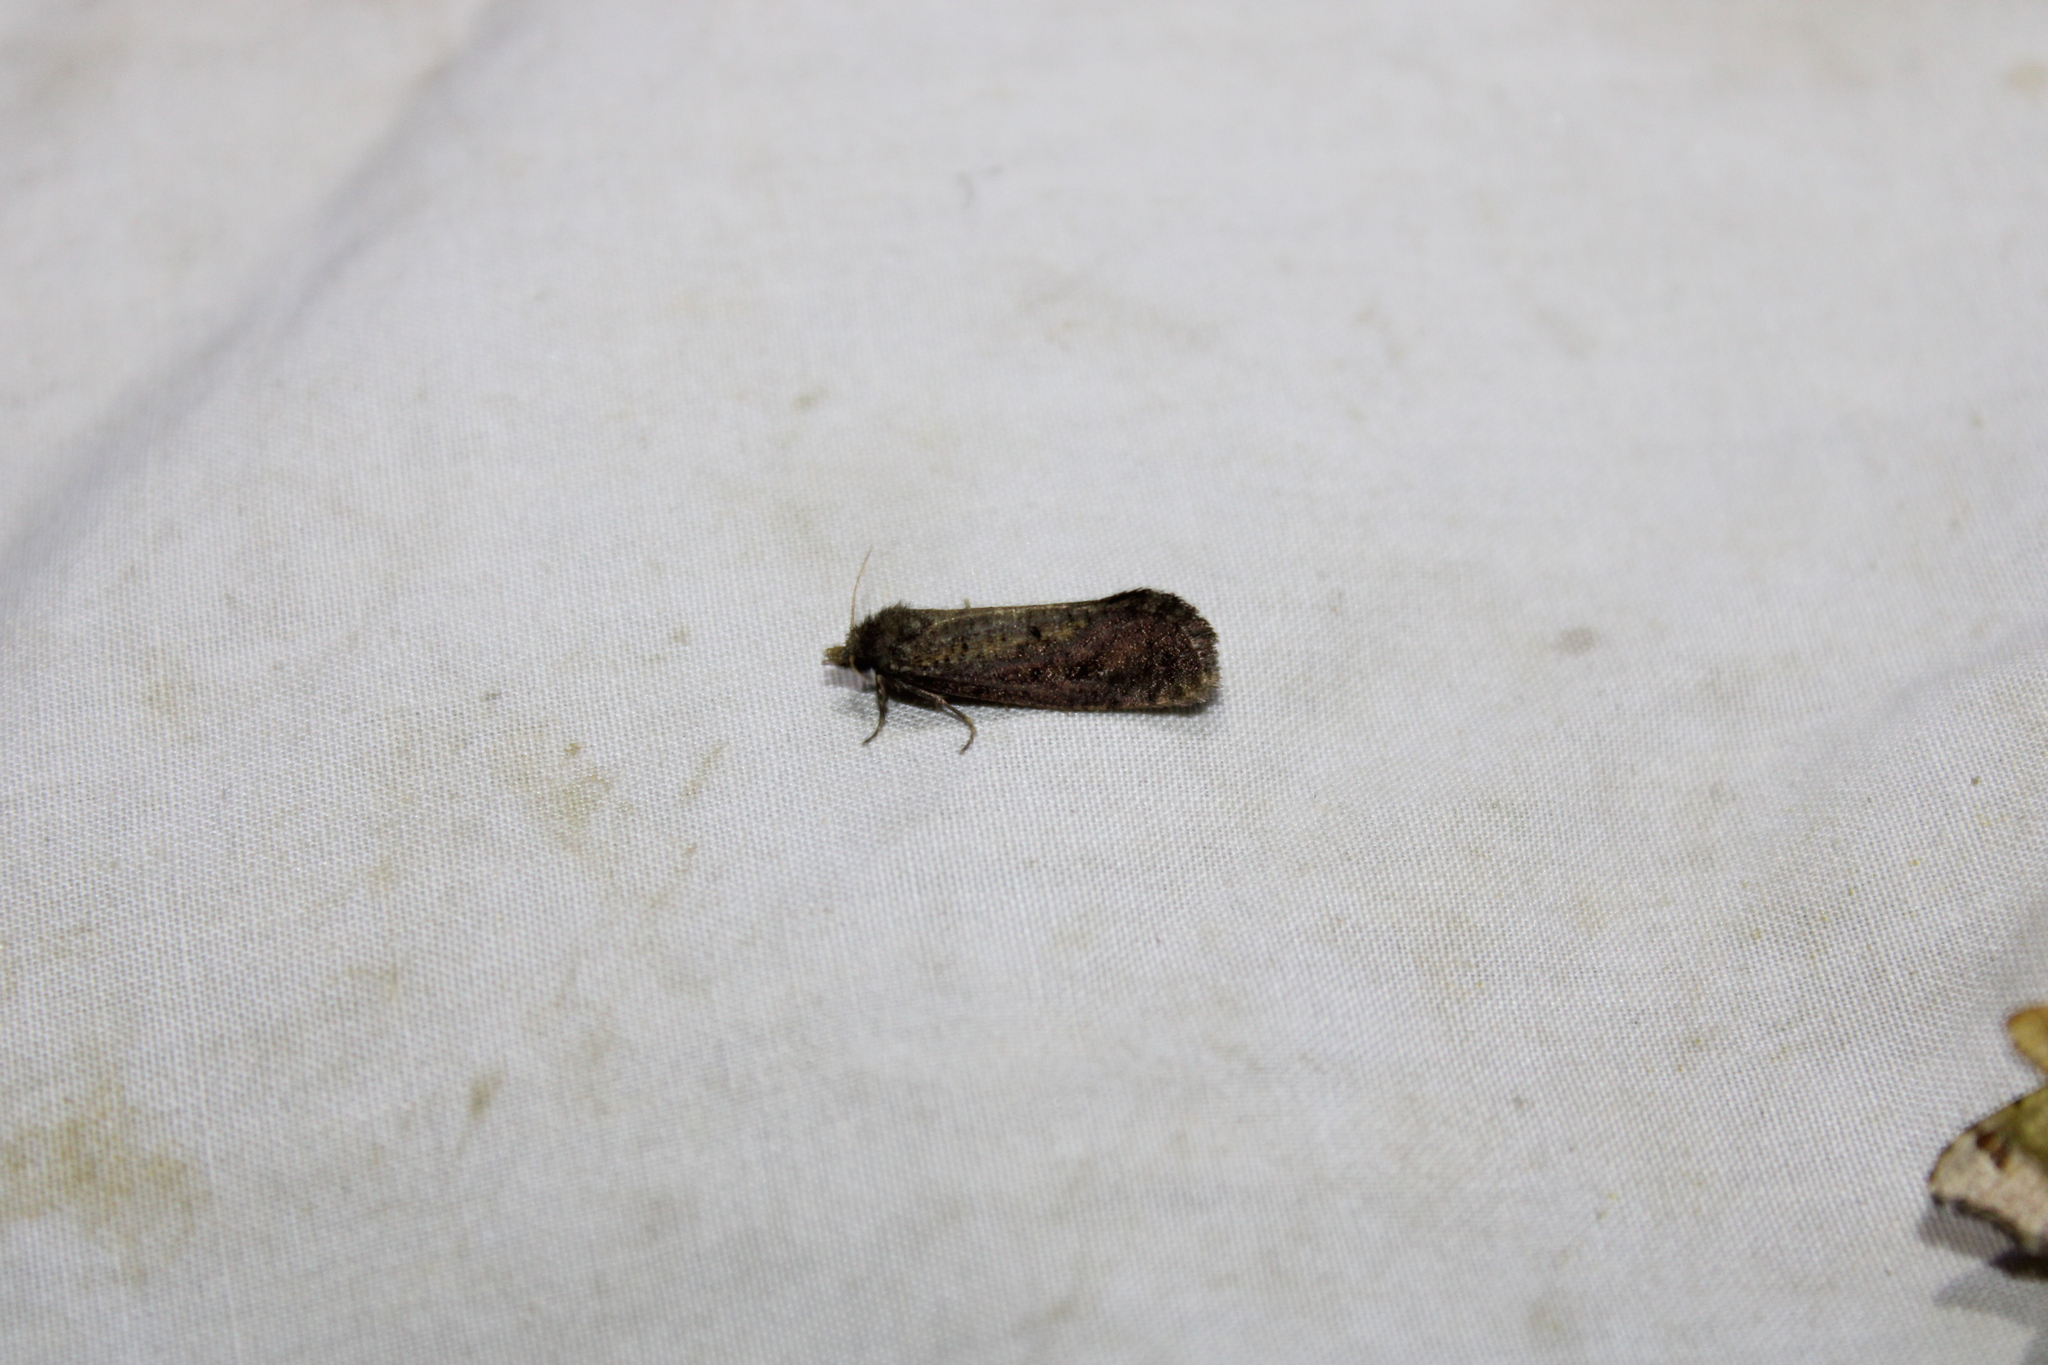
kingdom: Animalia
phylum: Arthropoda
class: Insecta
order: Lepidoptera
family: Tineidae
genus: Acrolophus
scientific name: Acrolophus popeanella
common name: Clemens' grass tubeworm moth
